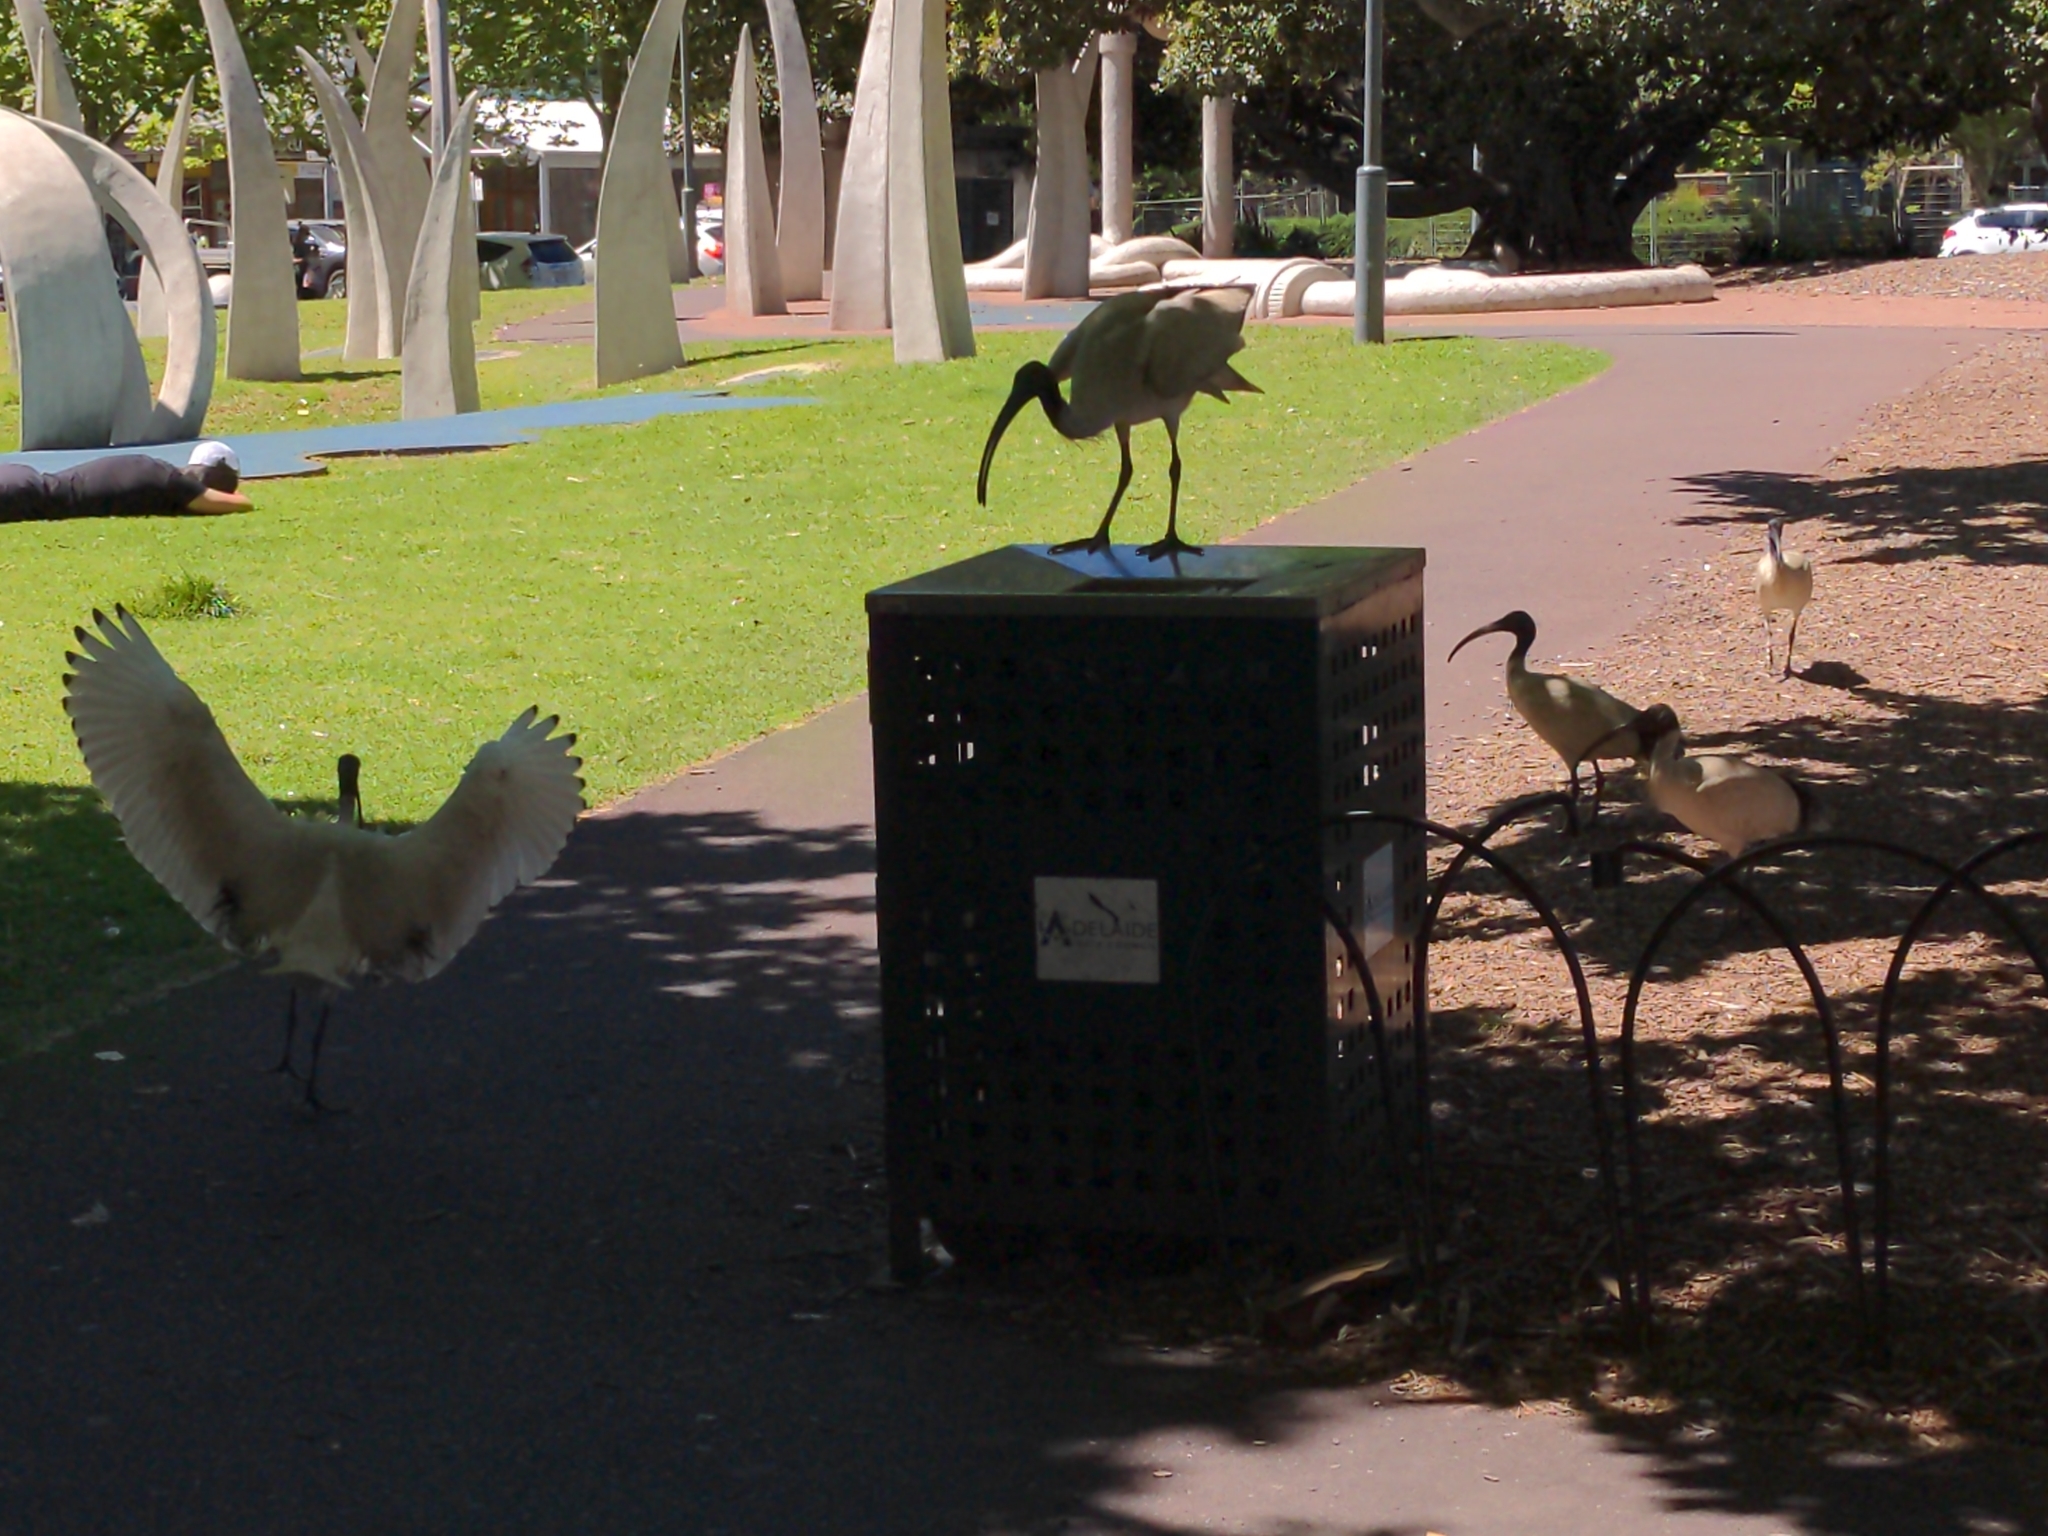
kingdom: Animalia
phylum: Chordata
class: Aves
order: Pelecaniformes
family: Threskiornithidae
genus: Threskiornis
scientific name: Threskiornis molucca
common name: Australian white ibis
